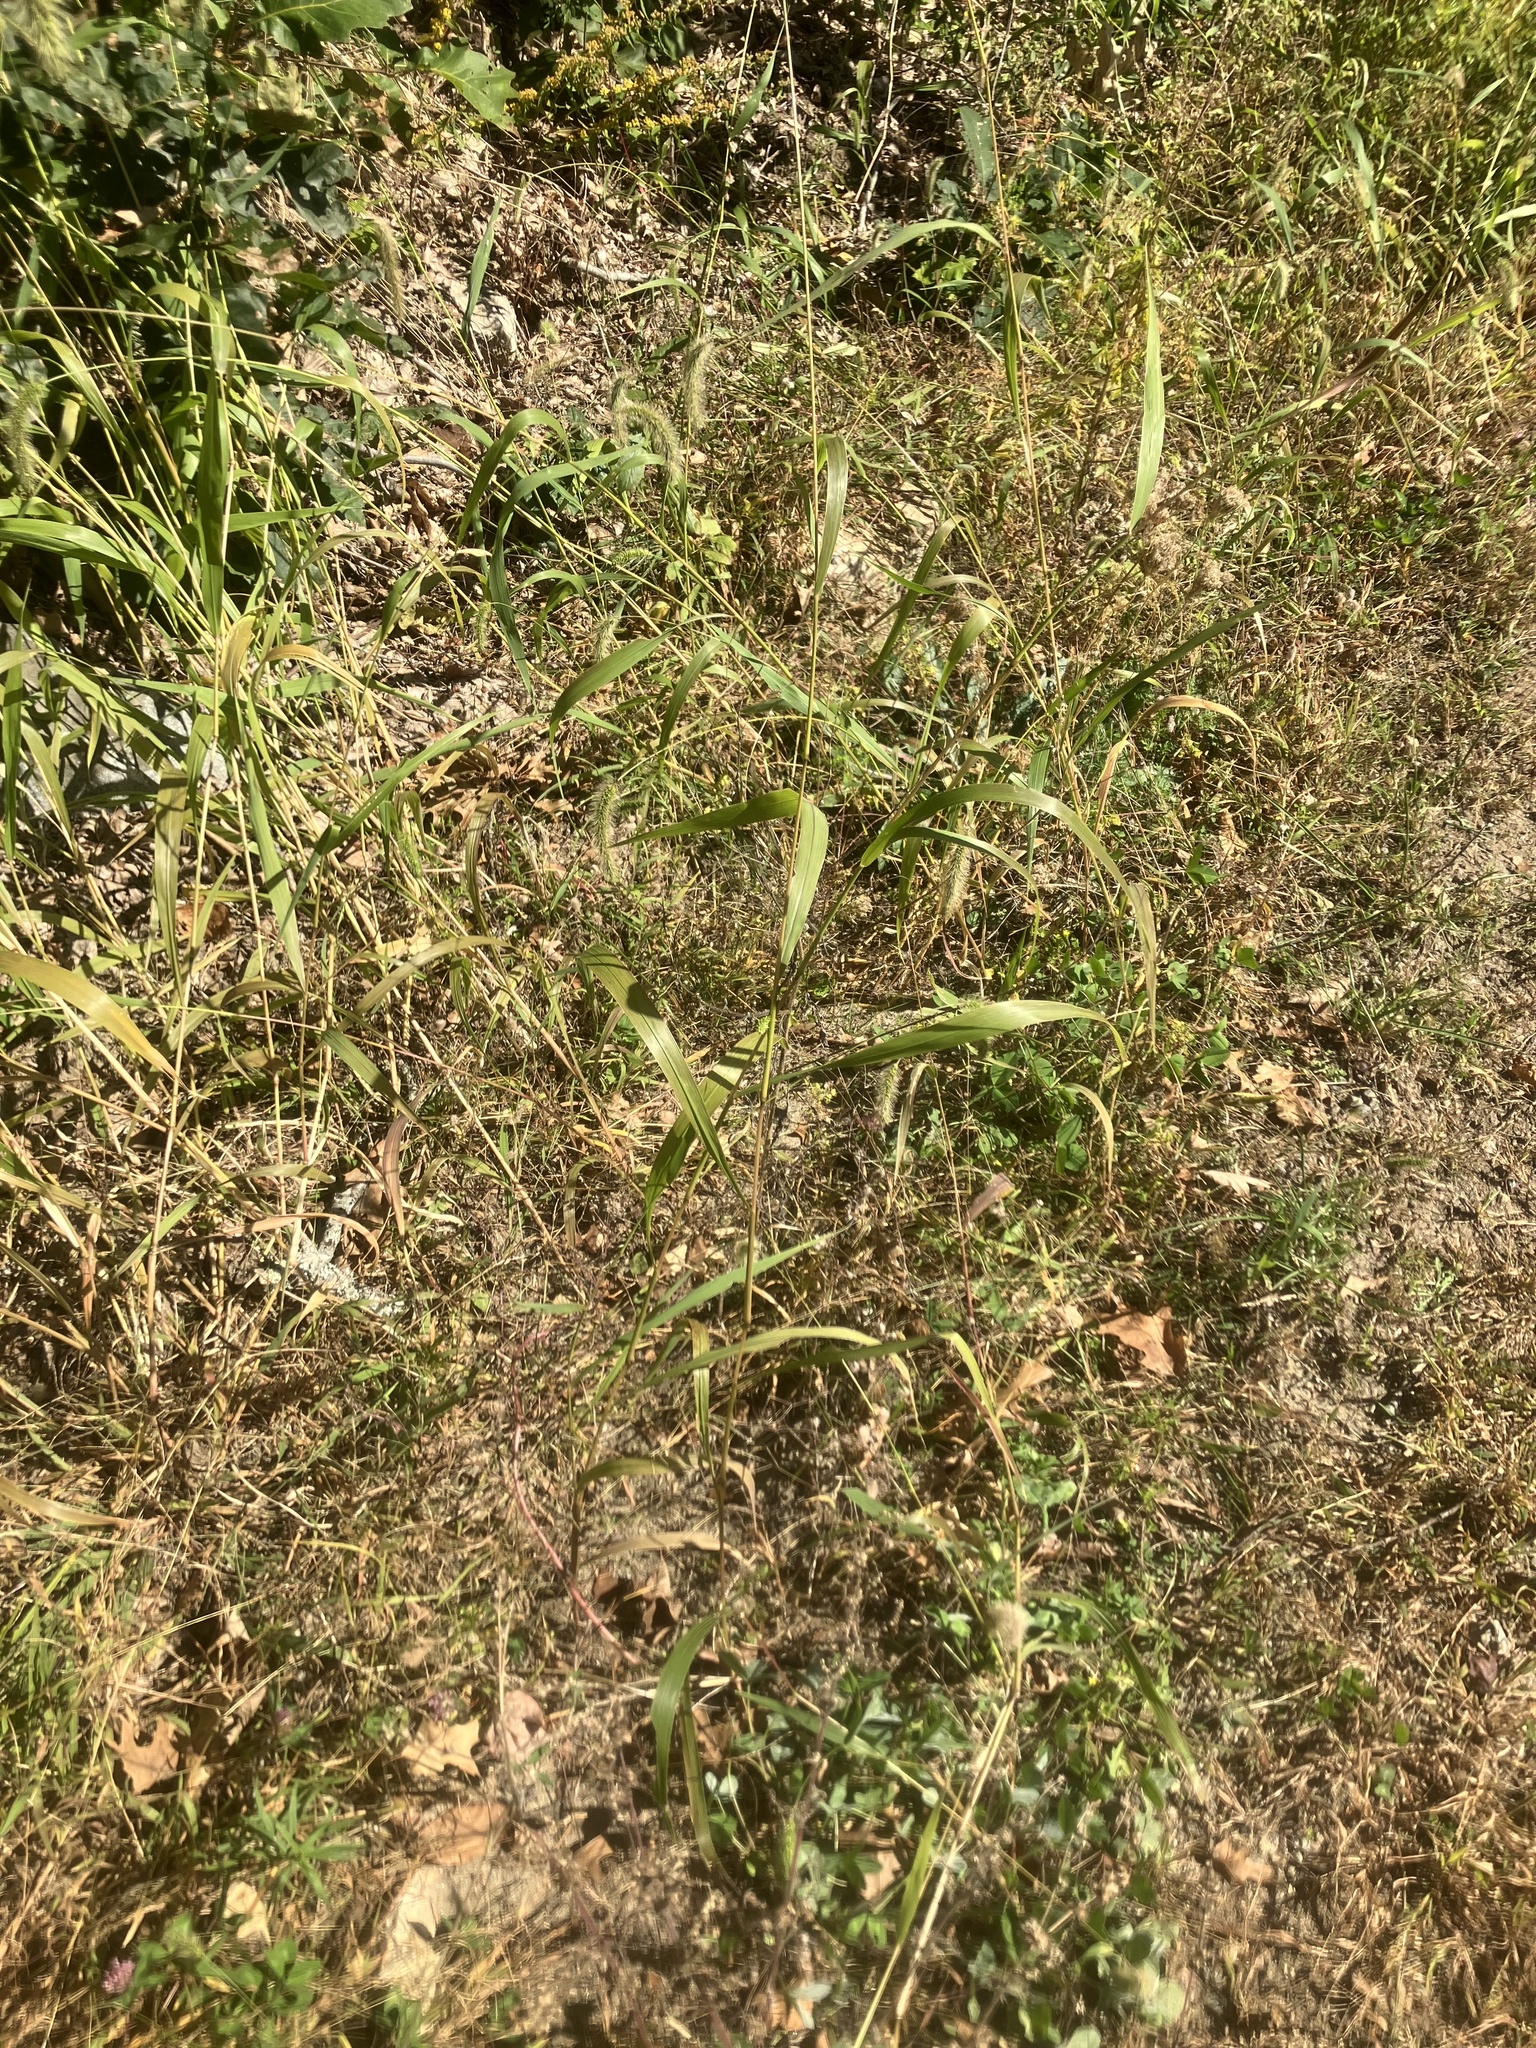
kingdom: Plantae
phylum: Tracheophyta
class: Liliopsida
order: Poales
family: Poaceae
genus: Setaria
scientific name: Setaria faberi
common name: Nodding bristle-grass
